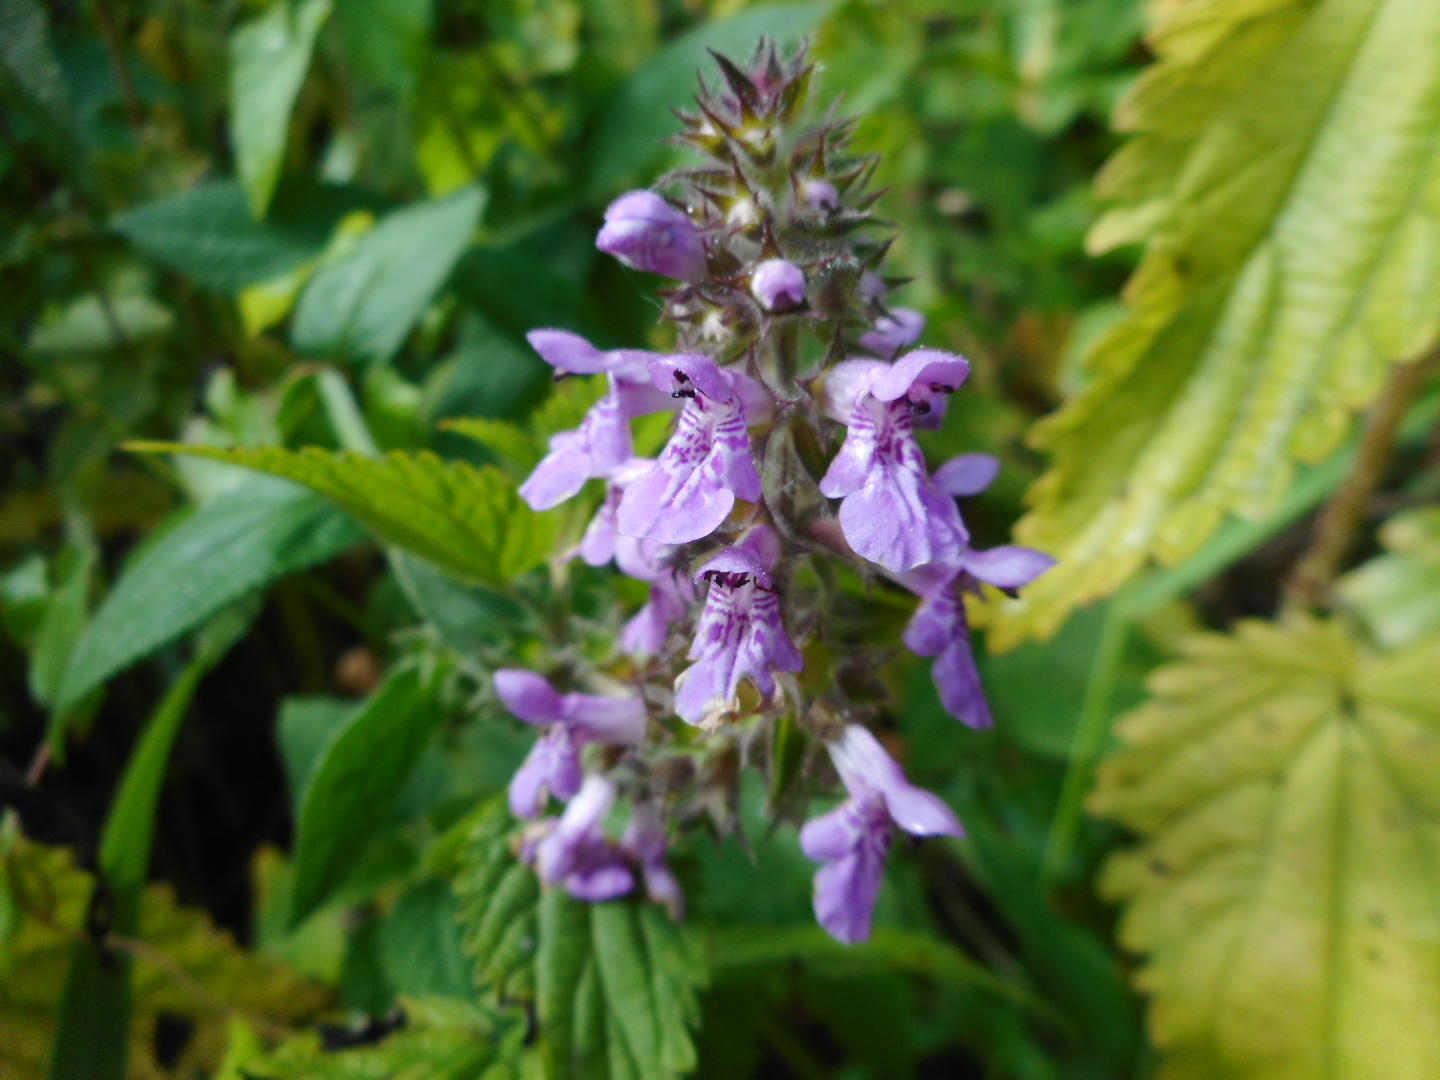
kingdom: Plantae
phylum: Tracheophyta
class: Magnoliopsida
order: Lamiales
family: Lamiaceae
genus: Stachys
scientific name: Stachys palustris
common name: Marsh woundwort
